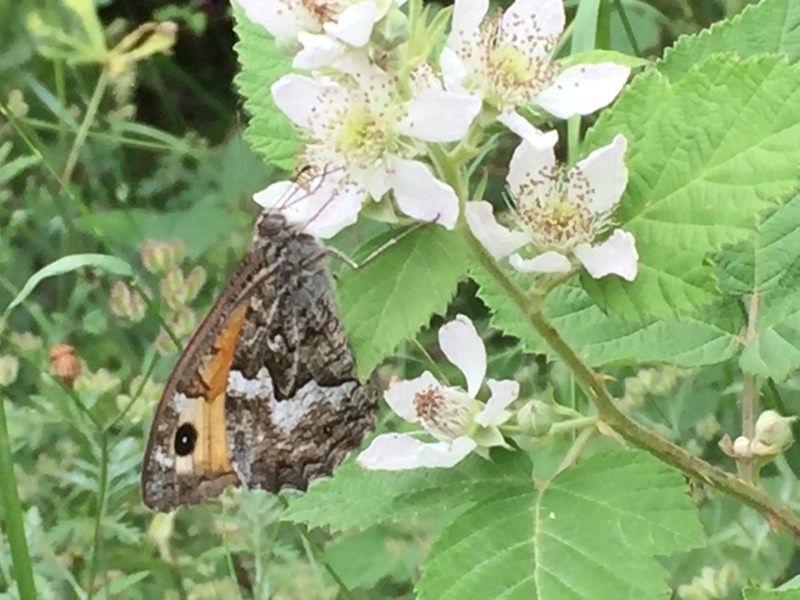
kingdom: Plantae
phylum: Tracheophyta
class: Magnoliopsida
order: Rosales
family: Rosaceae
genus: Rubus
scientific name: Rubus armeniacus
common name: Himalayan blackberry
